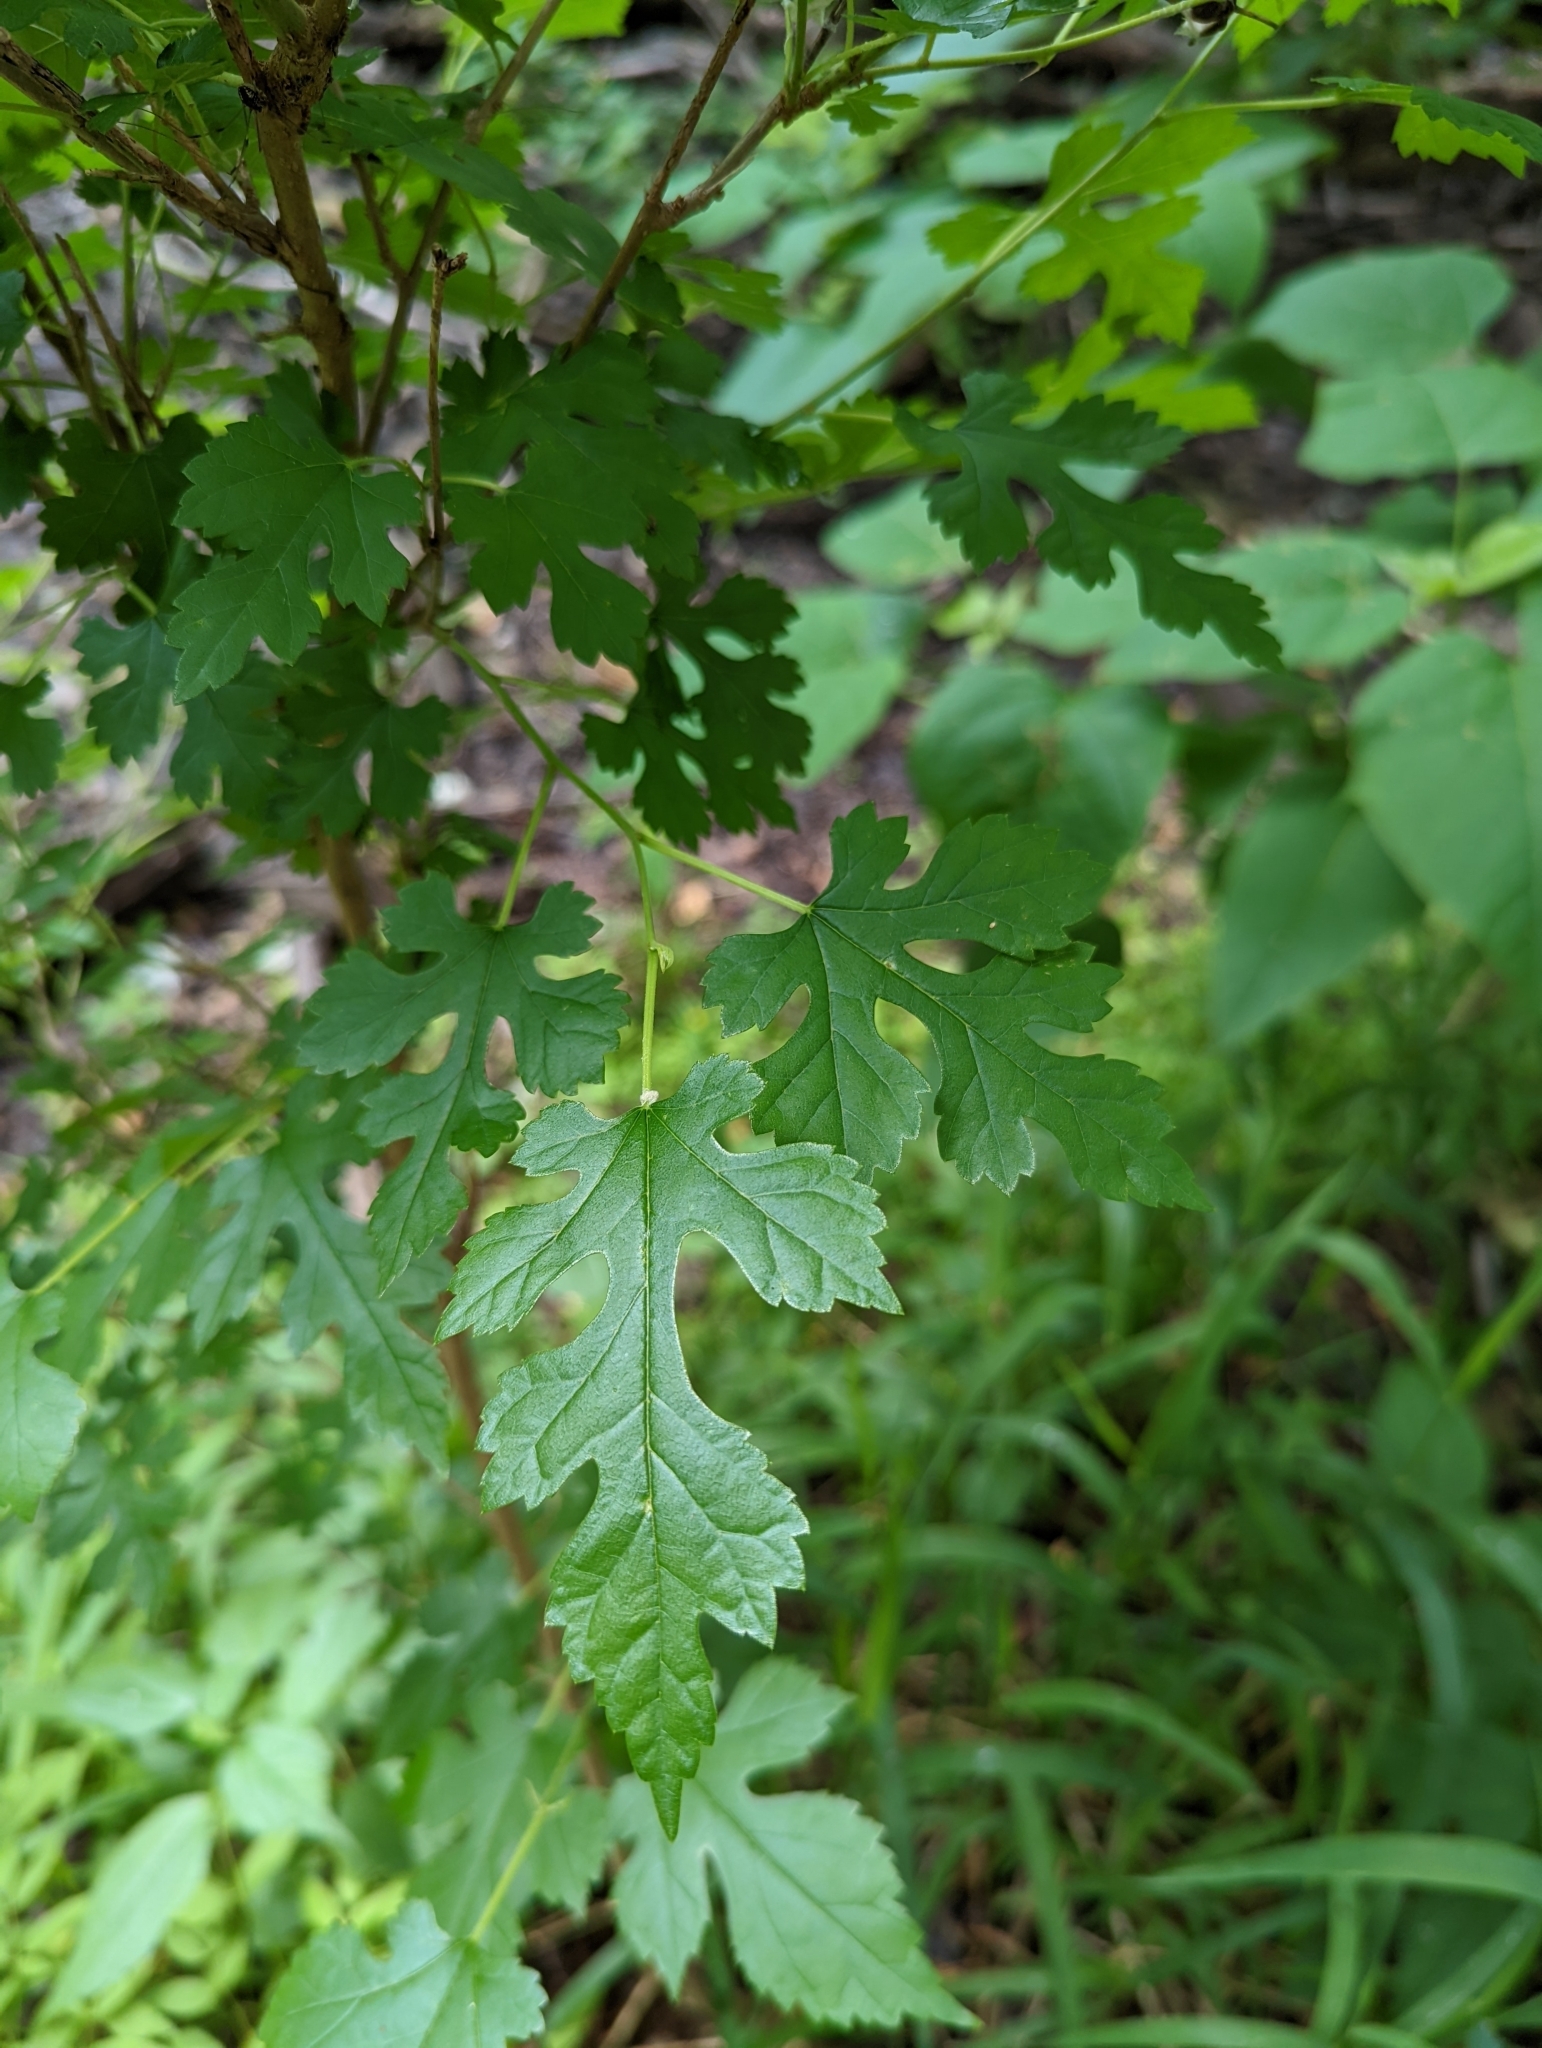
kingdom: Plantae
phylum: Tracheophyta
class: Magnoliopsida
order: Rosales
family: Moraceae
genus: Morus
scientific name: Morus alba
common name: White mulberry
